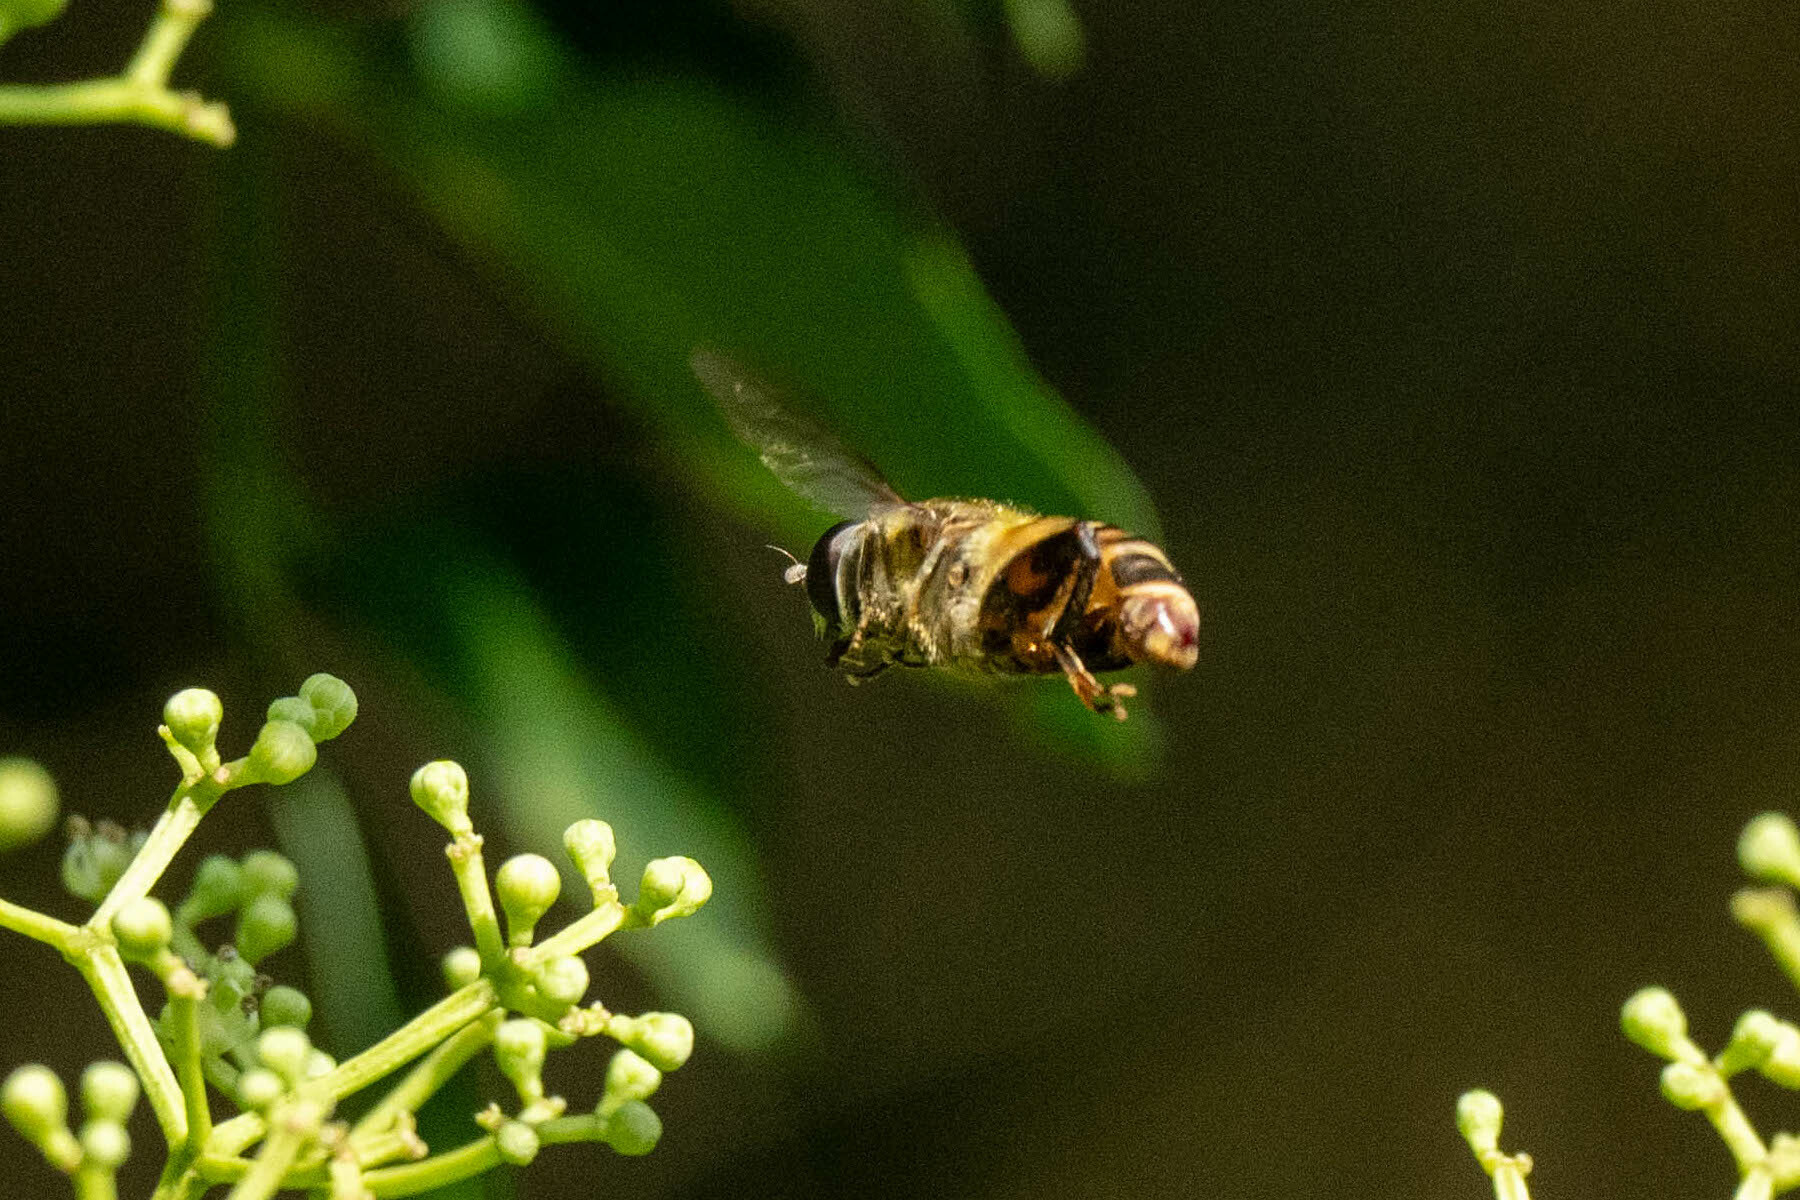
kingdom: Animalia
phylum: Arthropoda
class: Insecta
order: Diptera
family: Syrphidae
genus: Tigridemyia
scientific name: Tigridemyia curvigaster
